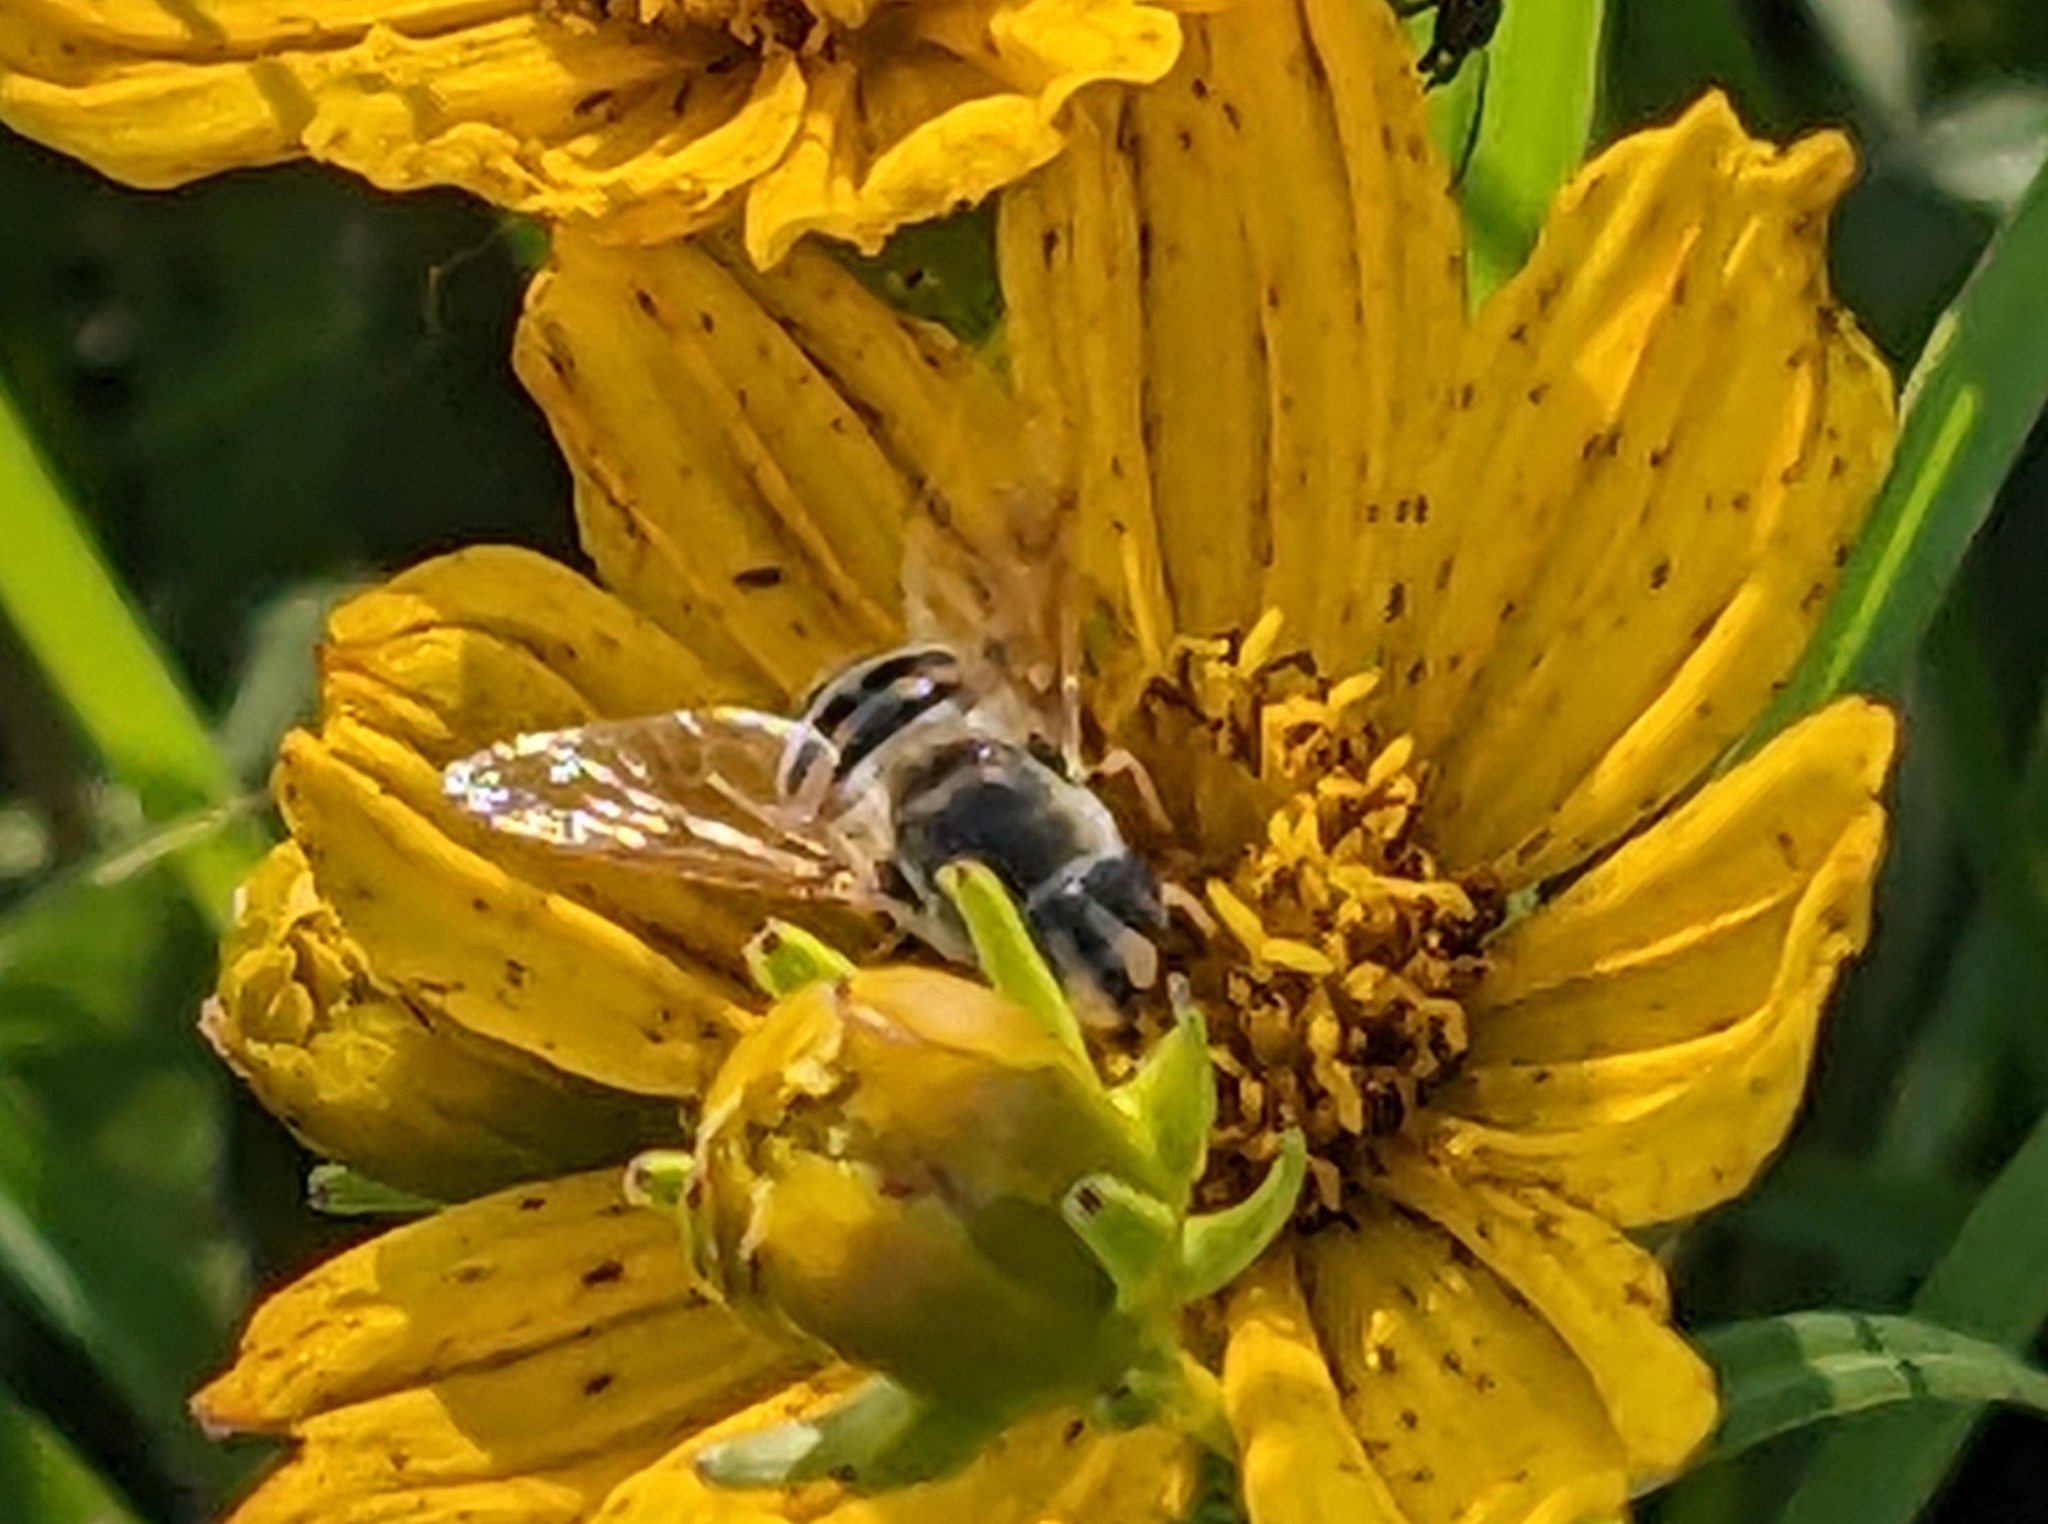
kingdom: Animalia
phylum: Arthropoda
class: Insecta
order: Diptera
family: Syrphidae
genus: Eristalis
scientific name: Eristalis stipator
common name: Yellow-shouldered drone fly
